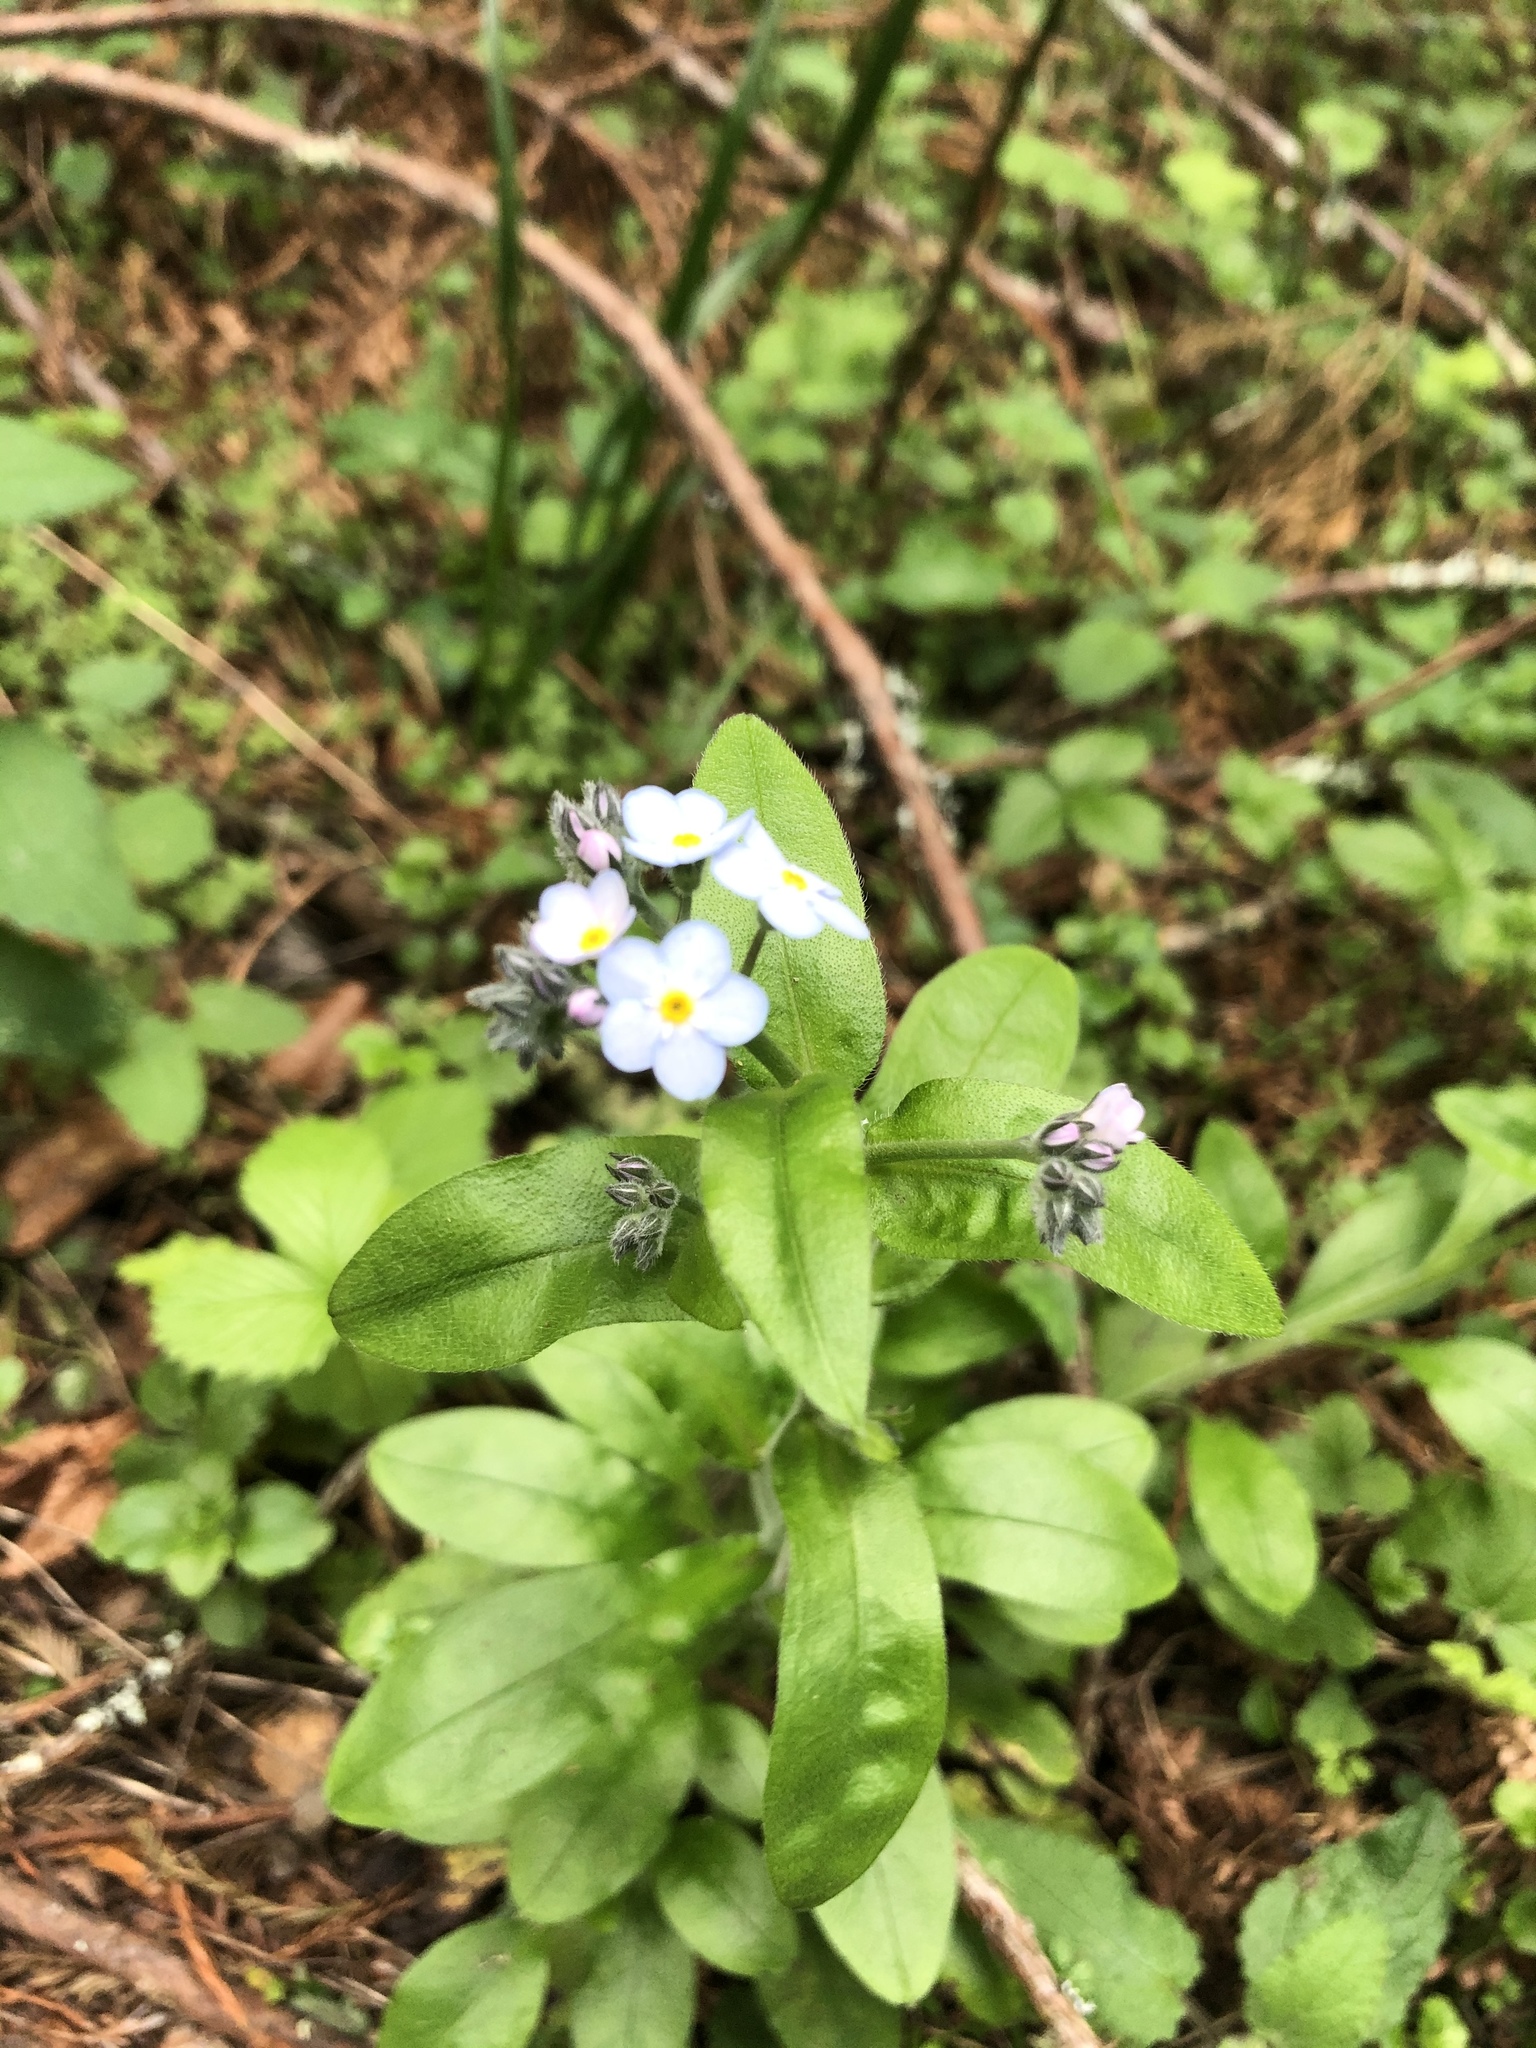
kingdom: Plantae
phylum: Tracheophyta
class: Magnoliopsida
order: Boraginales
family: Boraginaceae
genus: Myosotis
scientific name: Myosotis latifolia
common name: Broadleaf forget-me-not
